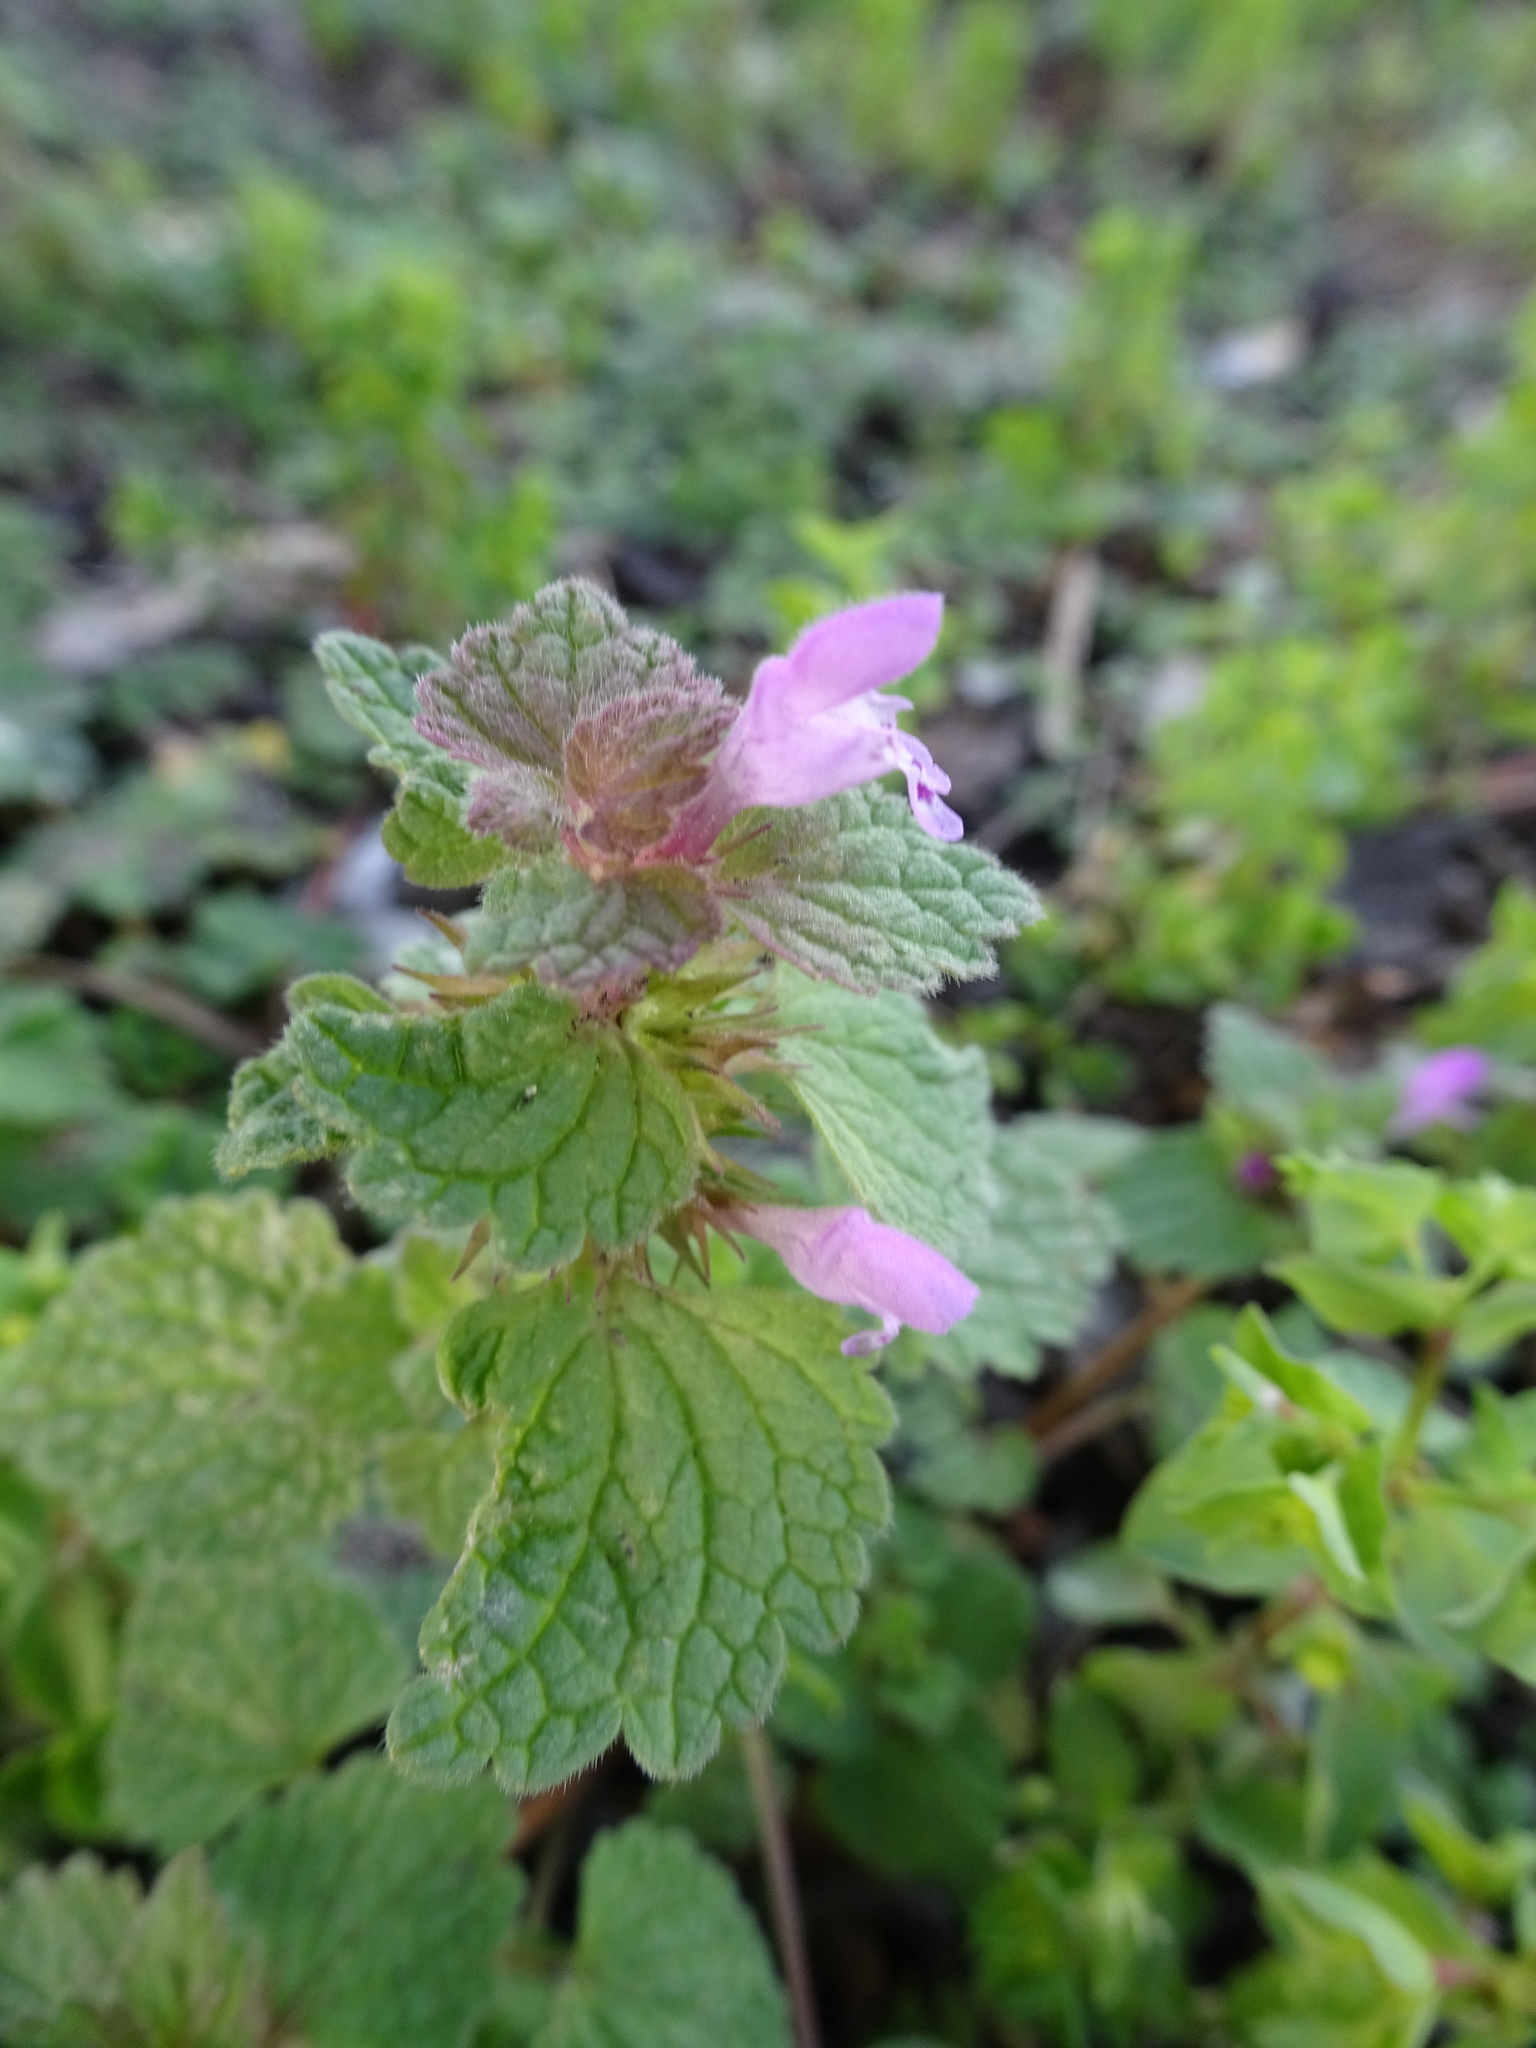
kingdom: Plantae
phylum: Tracheophyta
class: Magnoliopsida
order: Lamiales
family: Lamiaceae
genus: Lamium
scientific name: Lamium purpureum
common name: Red dead-nettle
